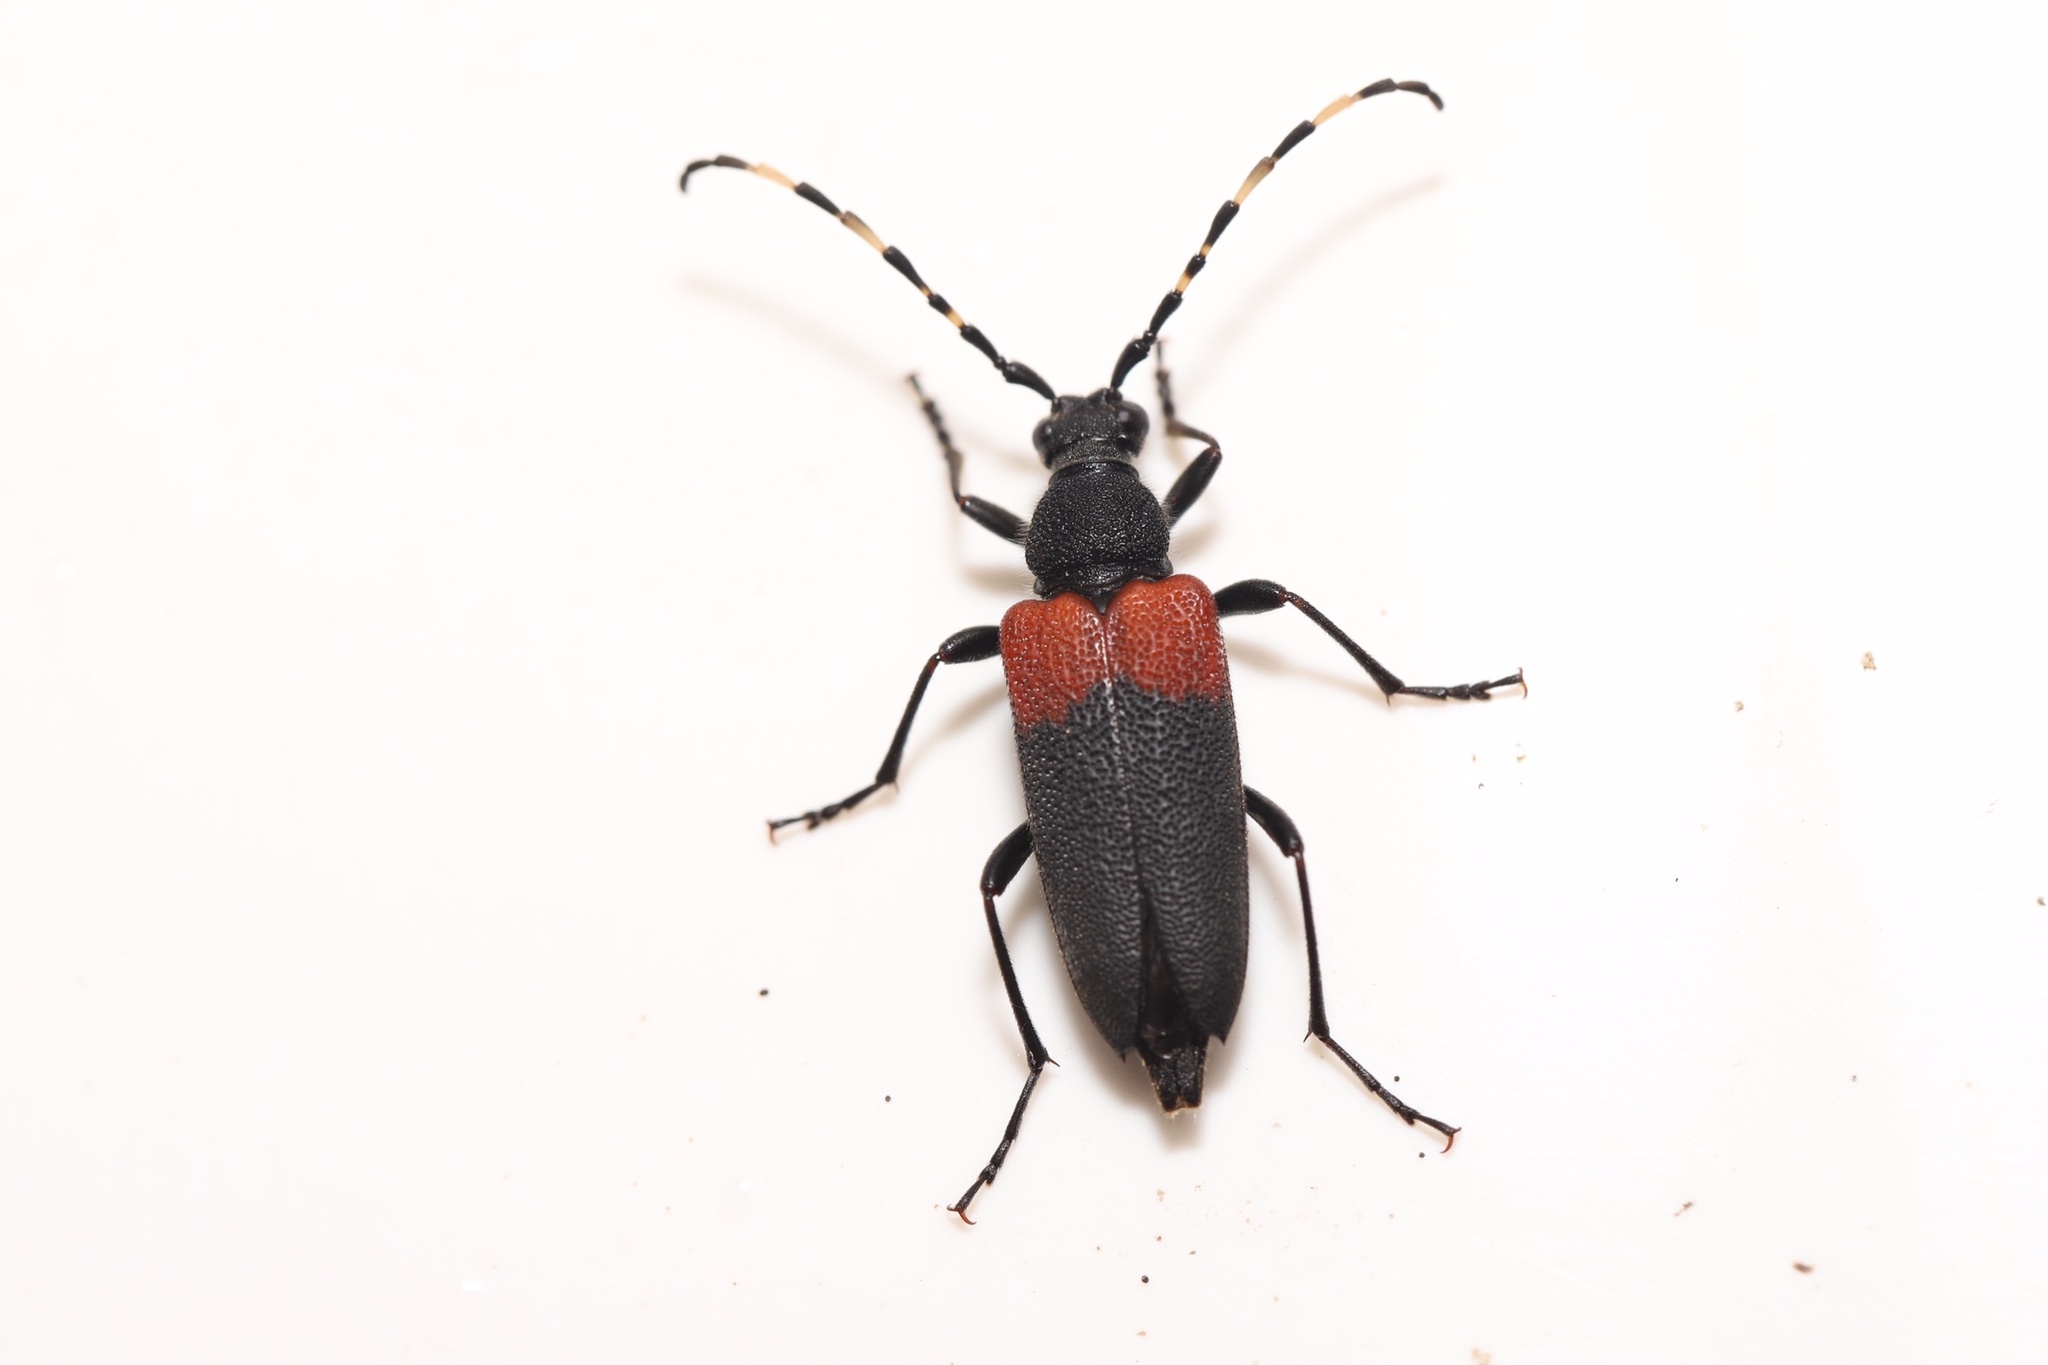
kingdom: Animalia
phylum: Arthropoda
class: Insecta
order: Coleoptera
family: Cerambycidae
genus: Stictoleptura
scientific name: Stictoleptura canadensis
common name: Red-shouldered pine borer
